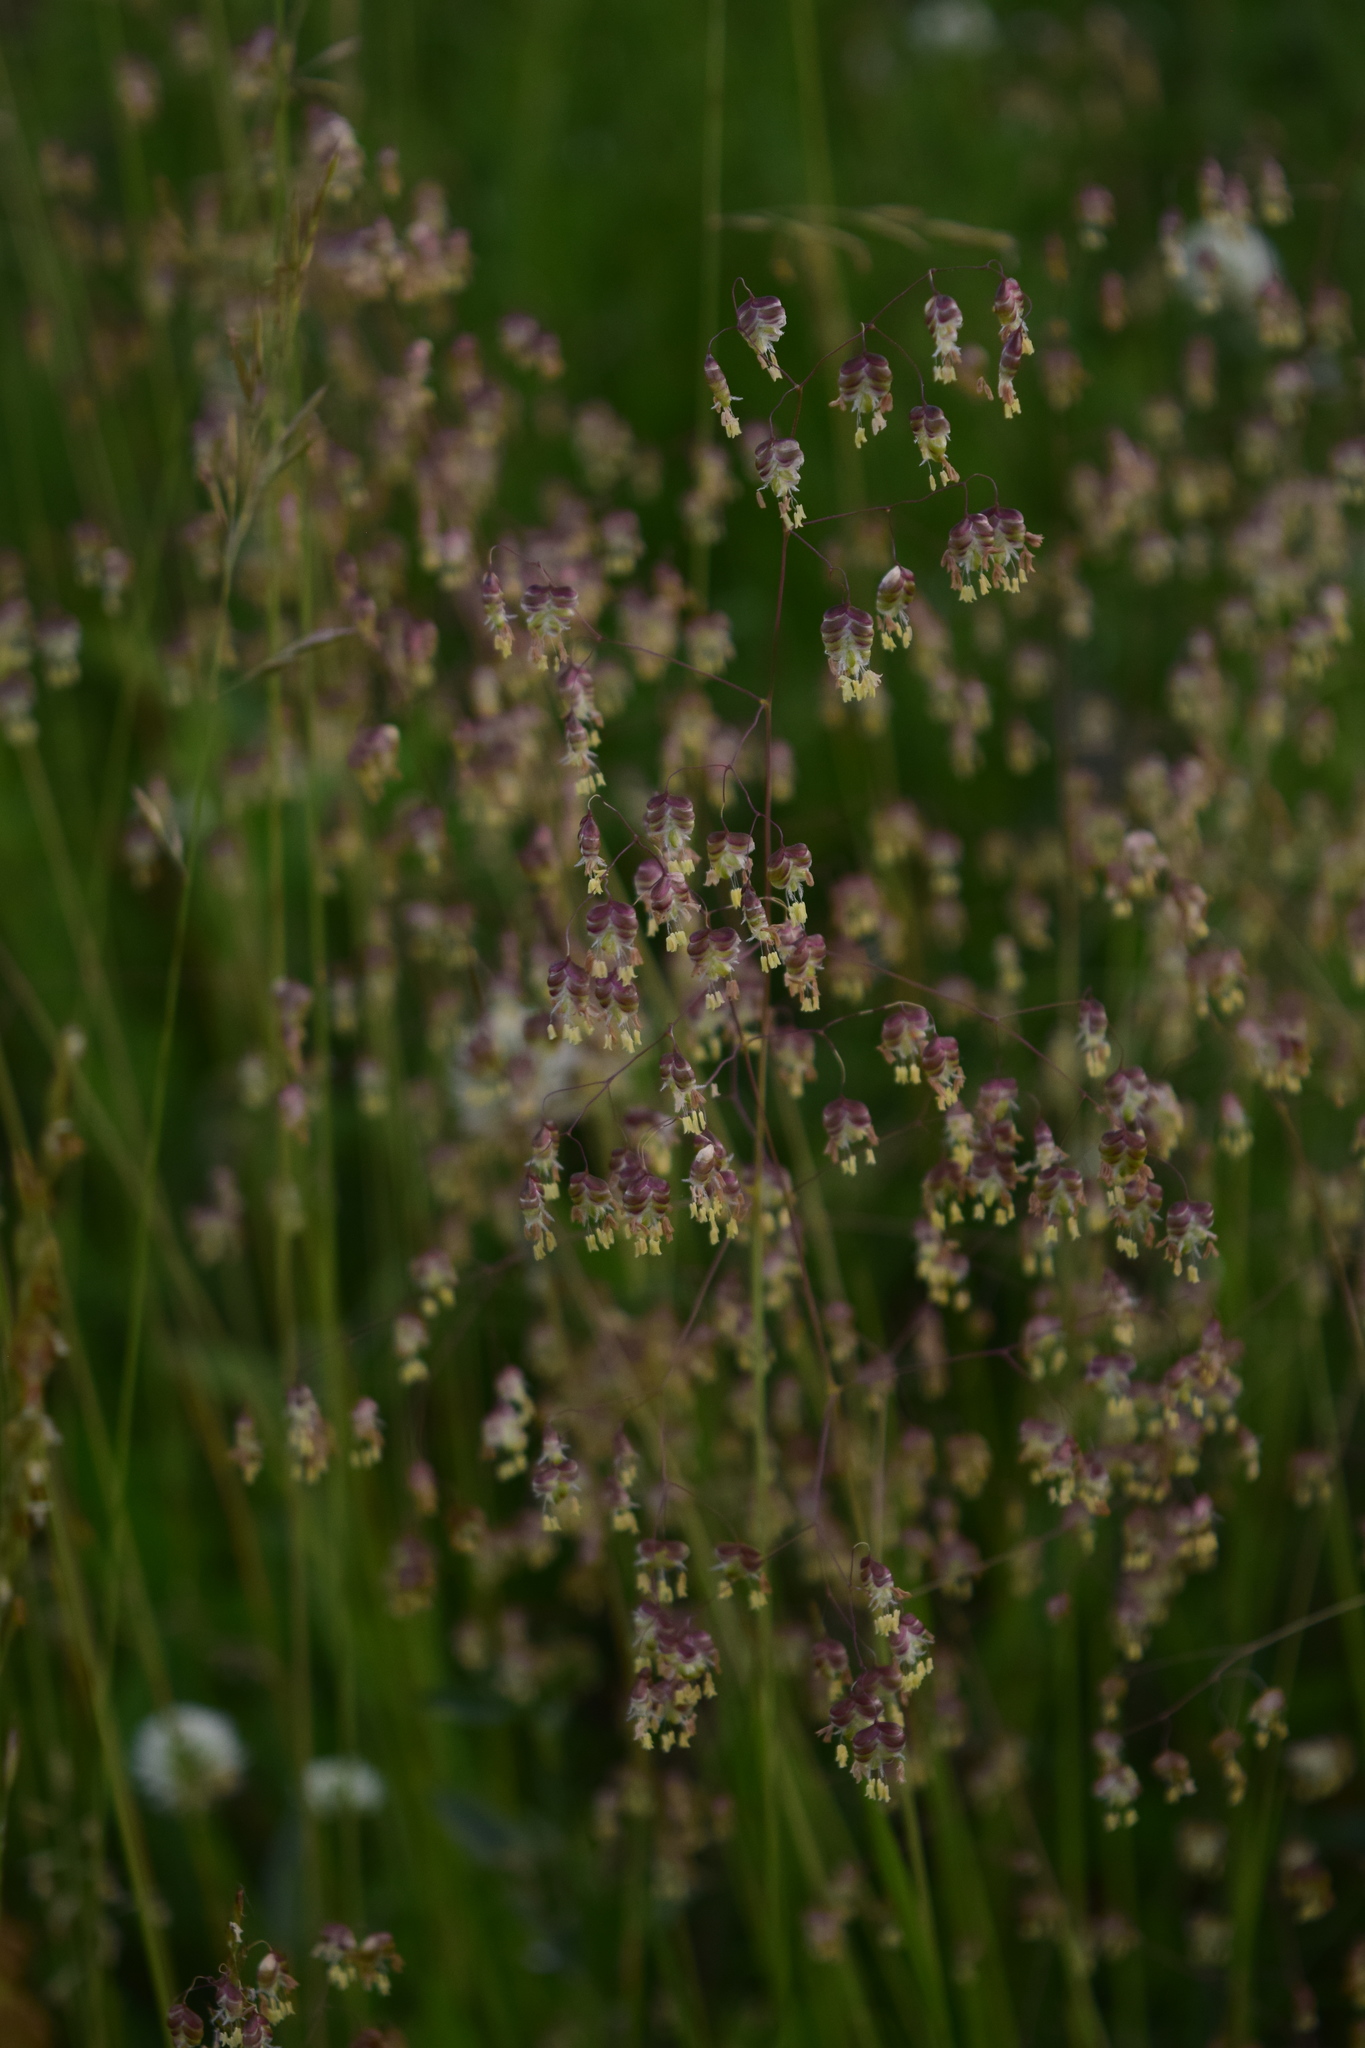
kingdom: Plantae
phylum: Tracheophyta
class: Liliopsida
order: Poales
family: Poaceae
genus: Briza
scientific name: Briza media
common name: Quaking grass
